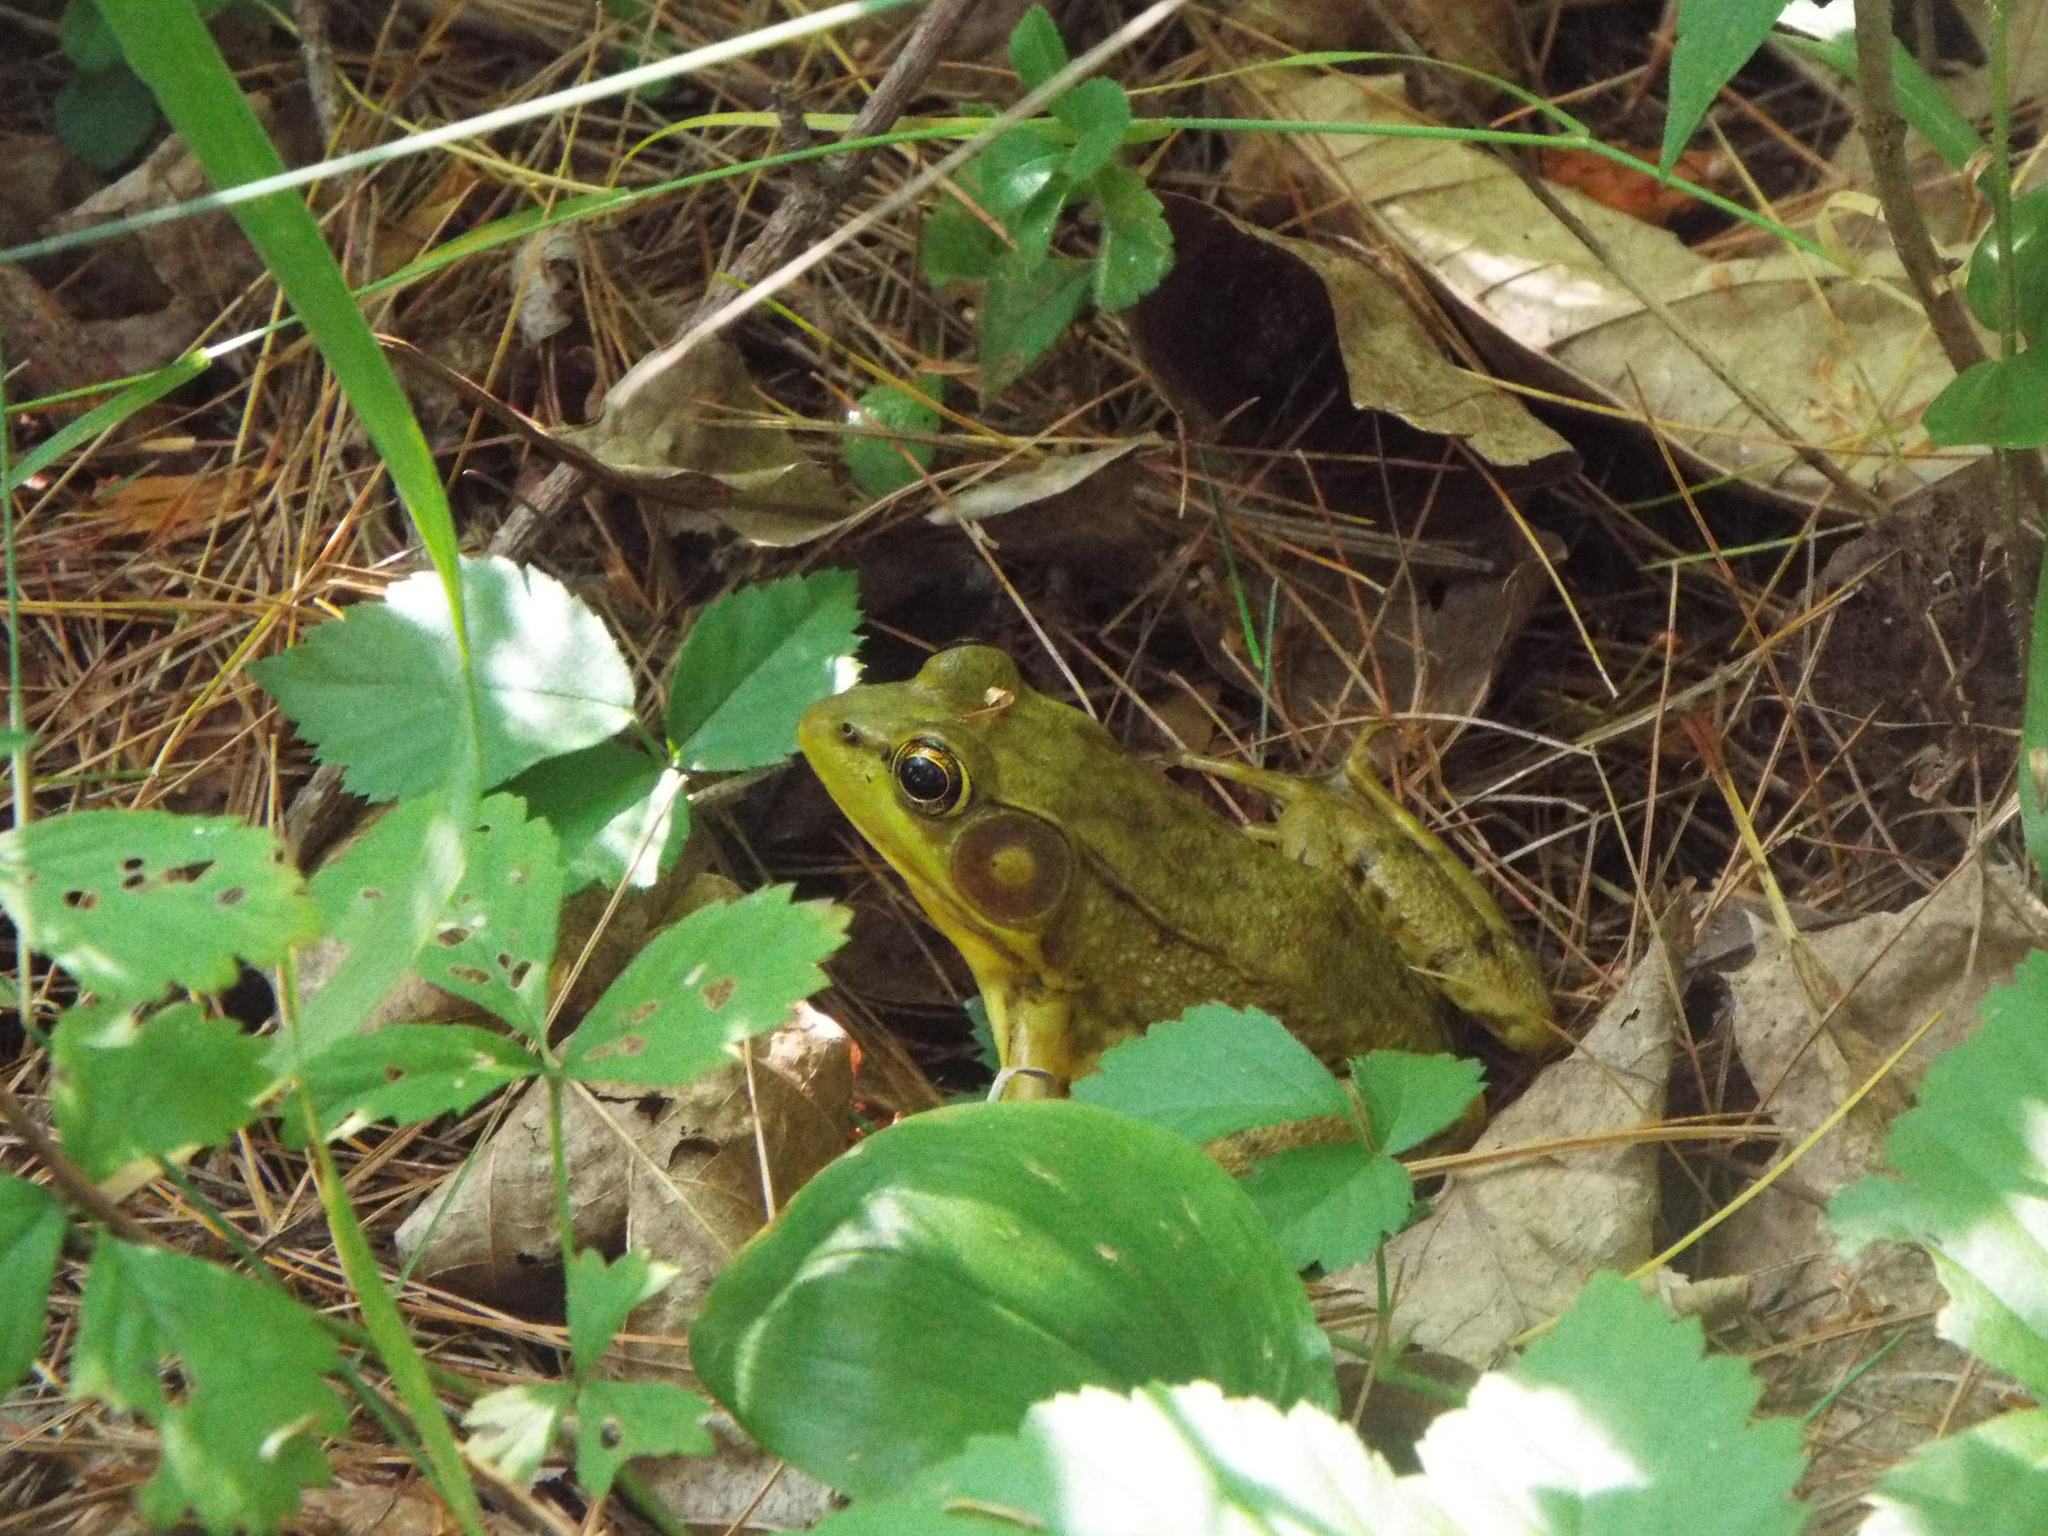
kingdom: Animalia
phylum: Chordata
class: Amphibia
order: Anura
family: Ranidae
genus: Lithobates
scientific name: Lithobates clamitans
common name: Green frog
